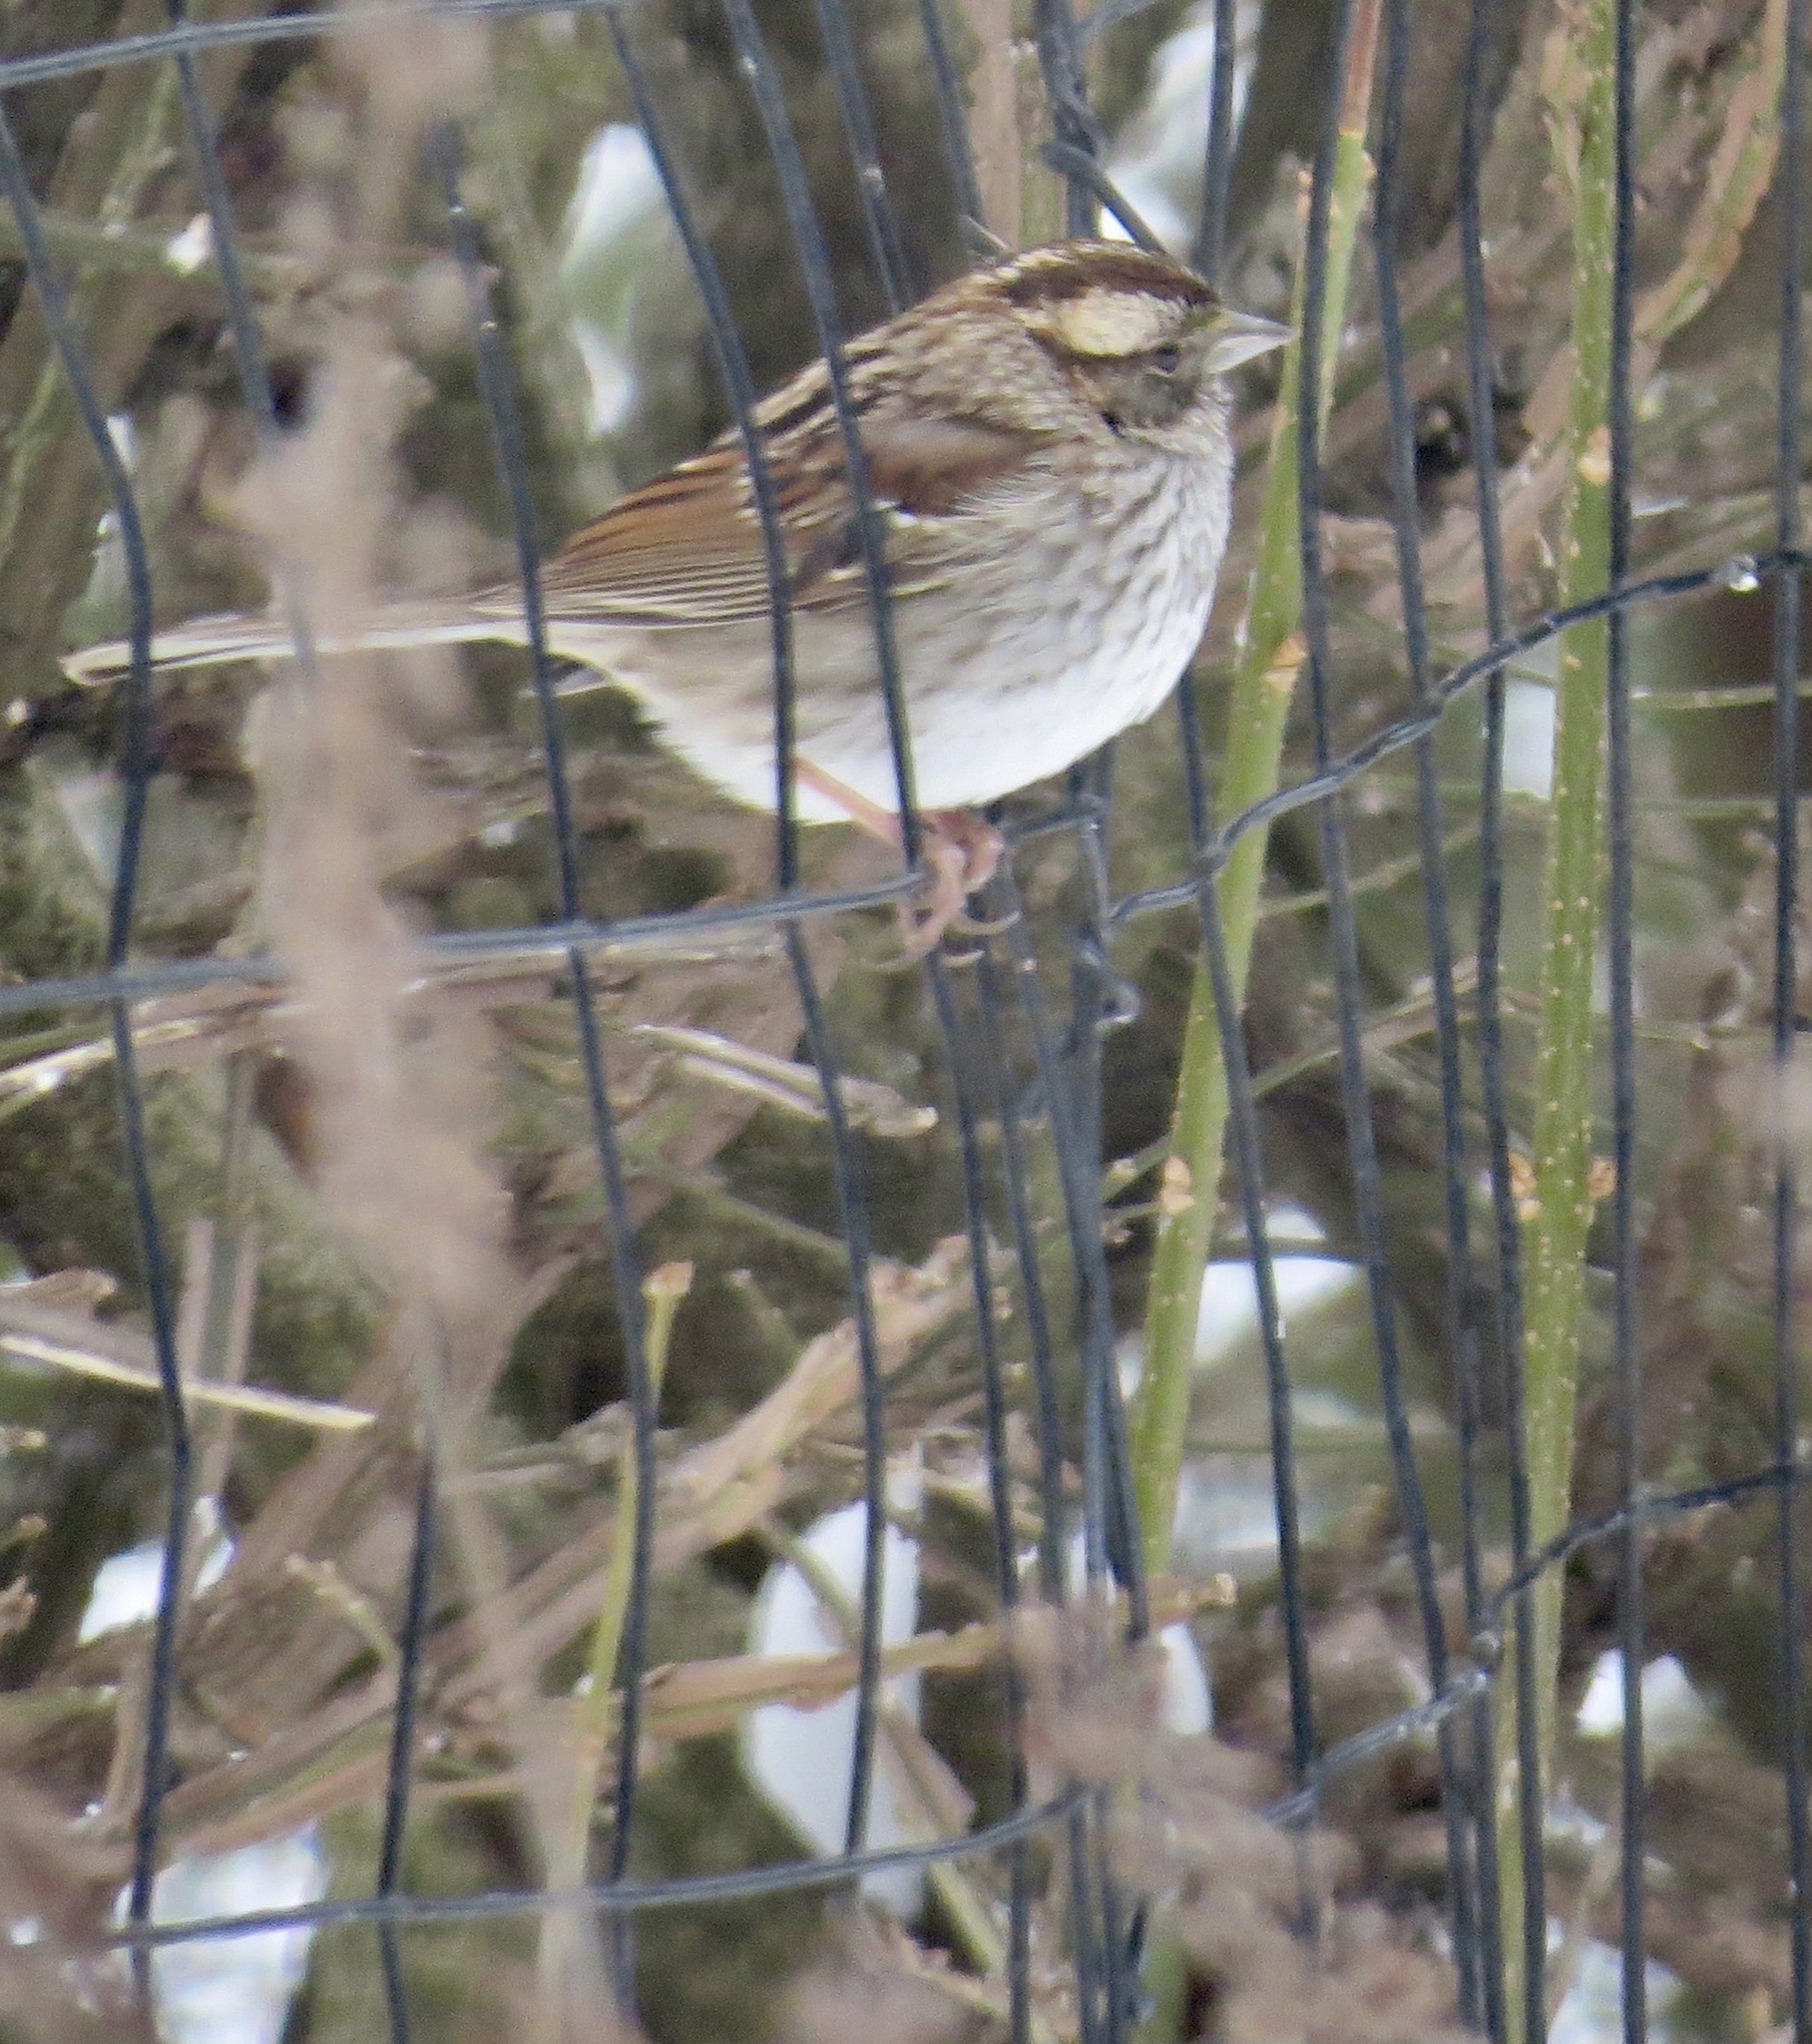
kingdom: Animalia
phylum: Chordata
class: Aves
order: Passeriformes
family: Passerellidae
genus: Zonotrichia
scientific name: Zonotrichia albicollis
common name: White-throated sparrow
